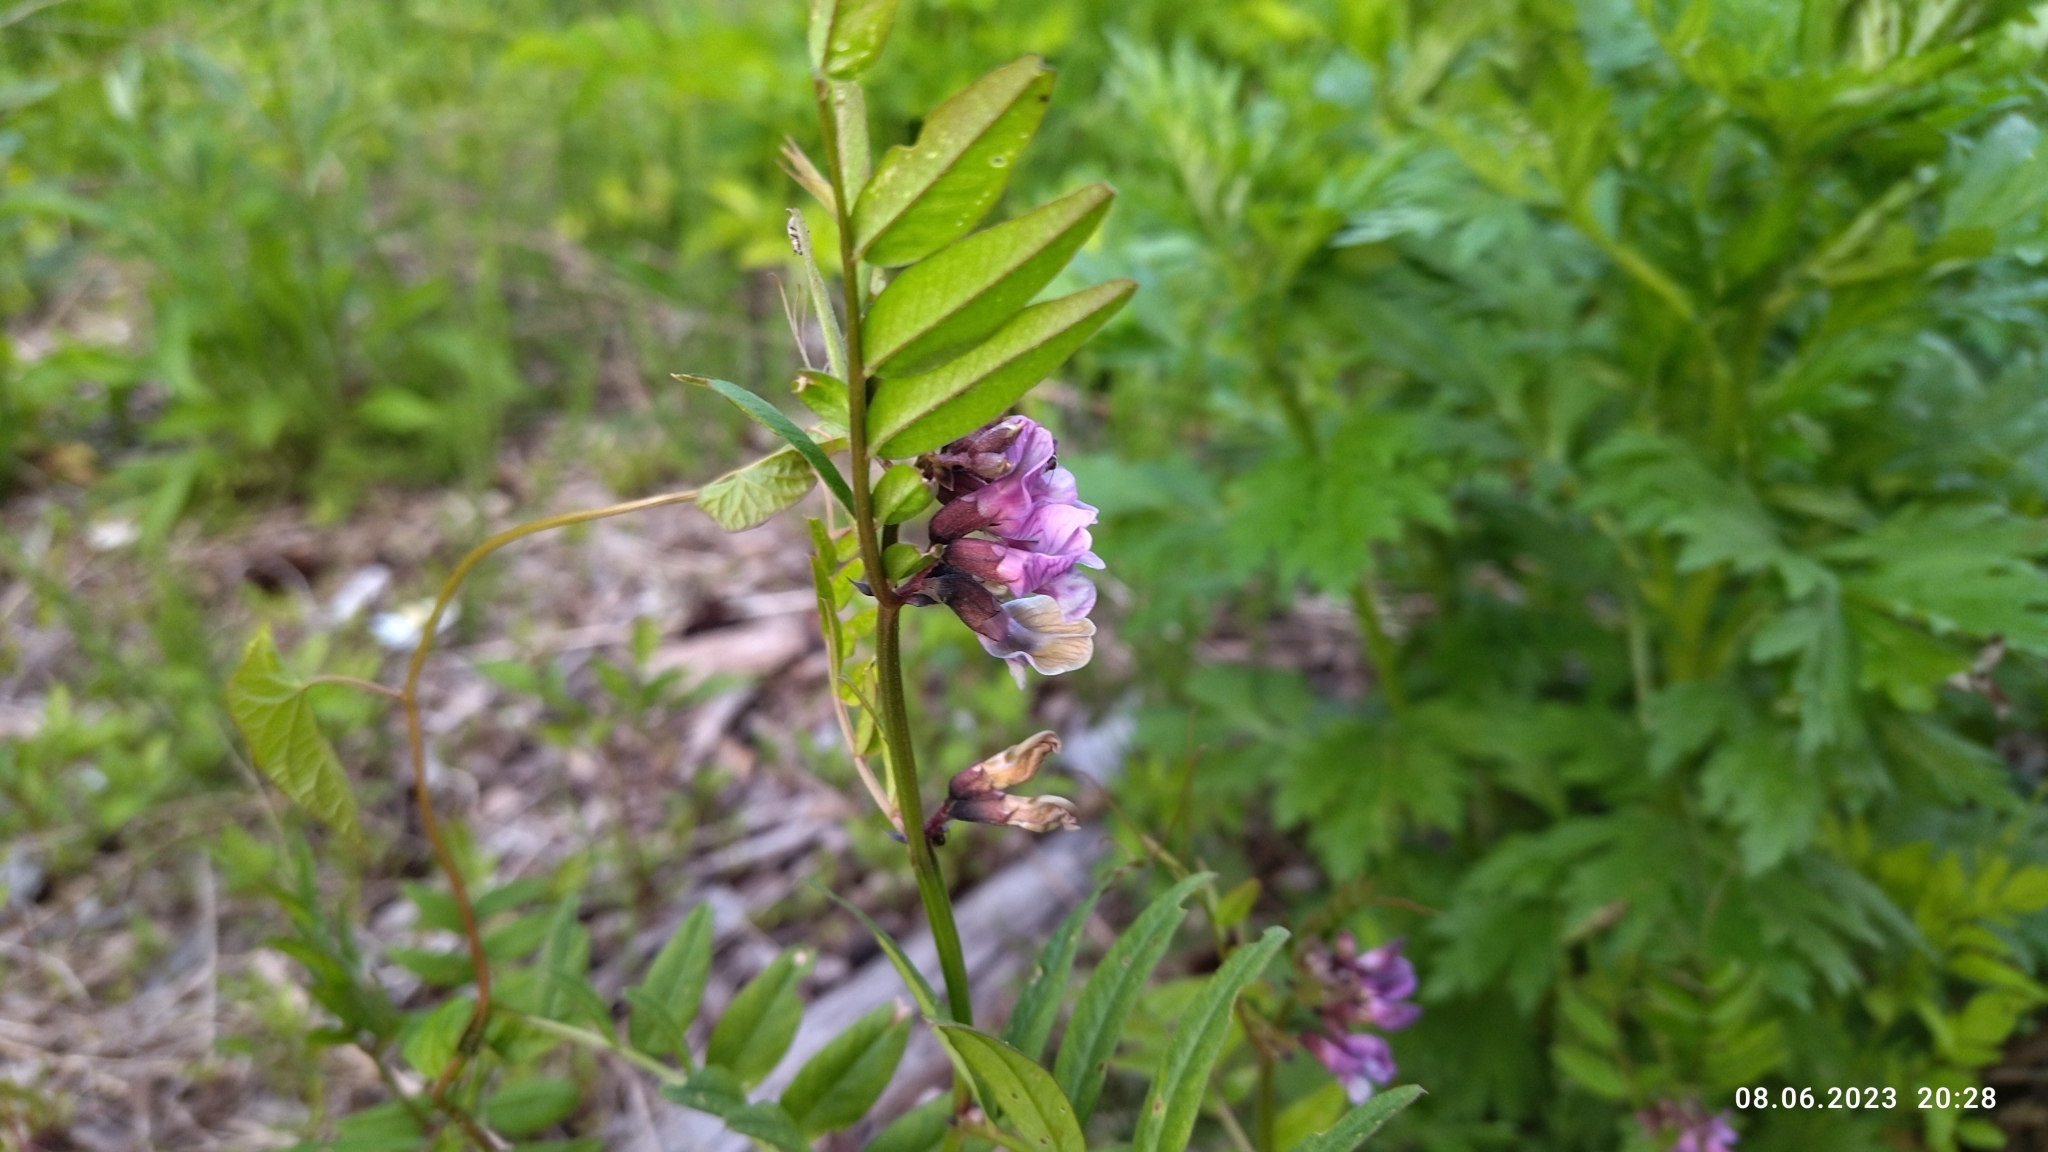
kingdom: Plantae
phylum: Tracheophyta
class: Magnoliopsida
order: Fabales
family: Fabaceae
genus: Vicia
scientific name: Vicia sepium
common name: Bush vetch
